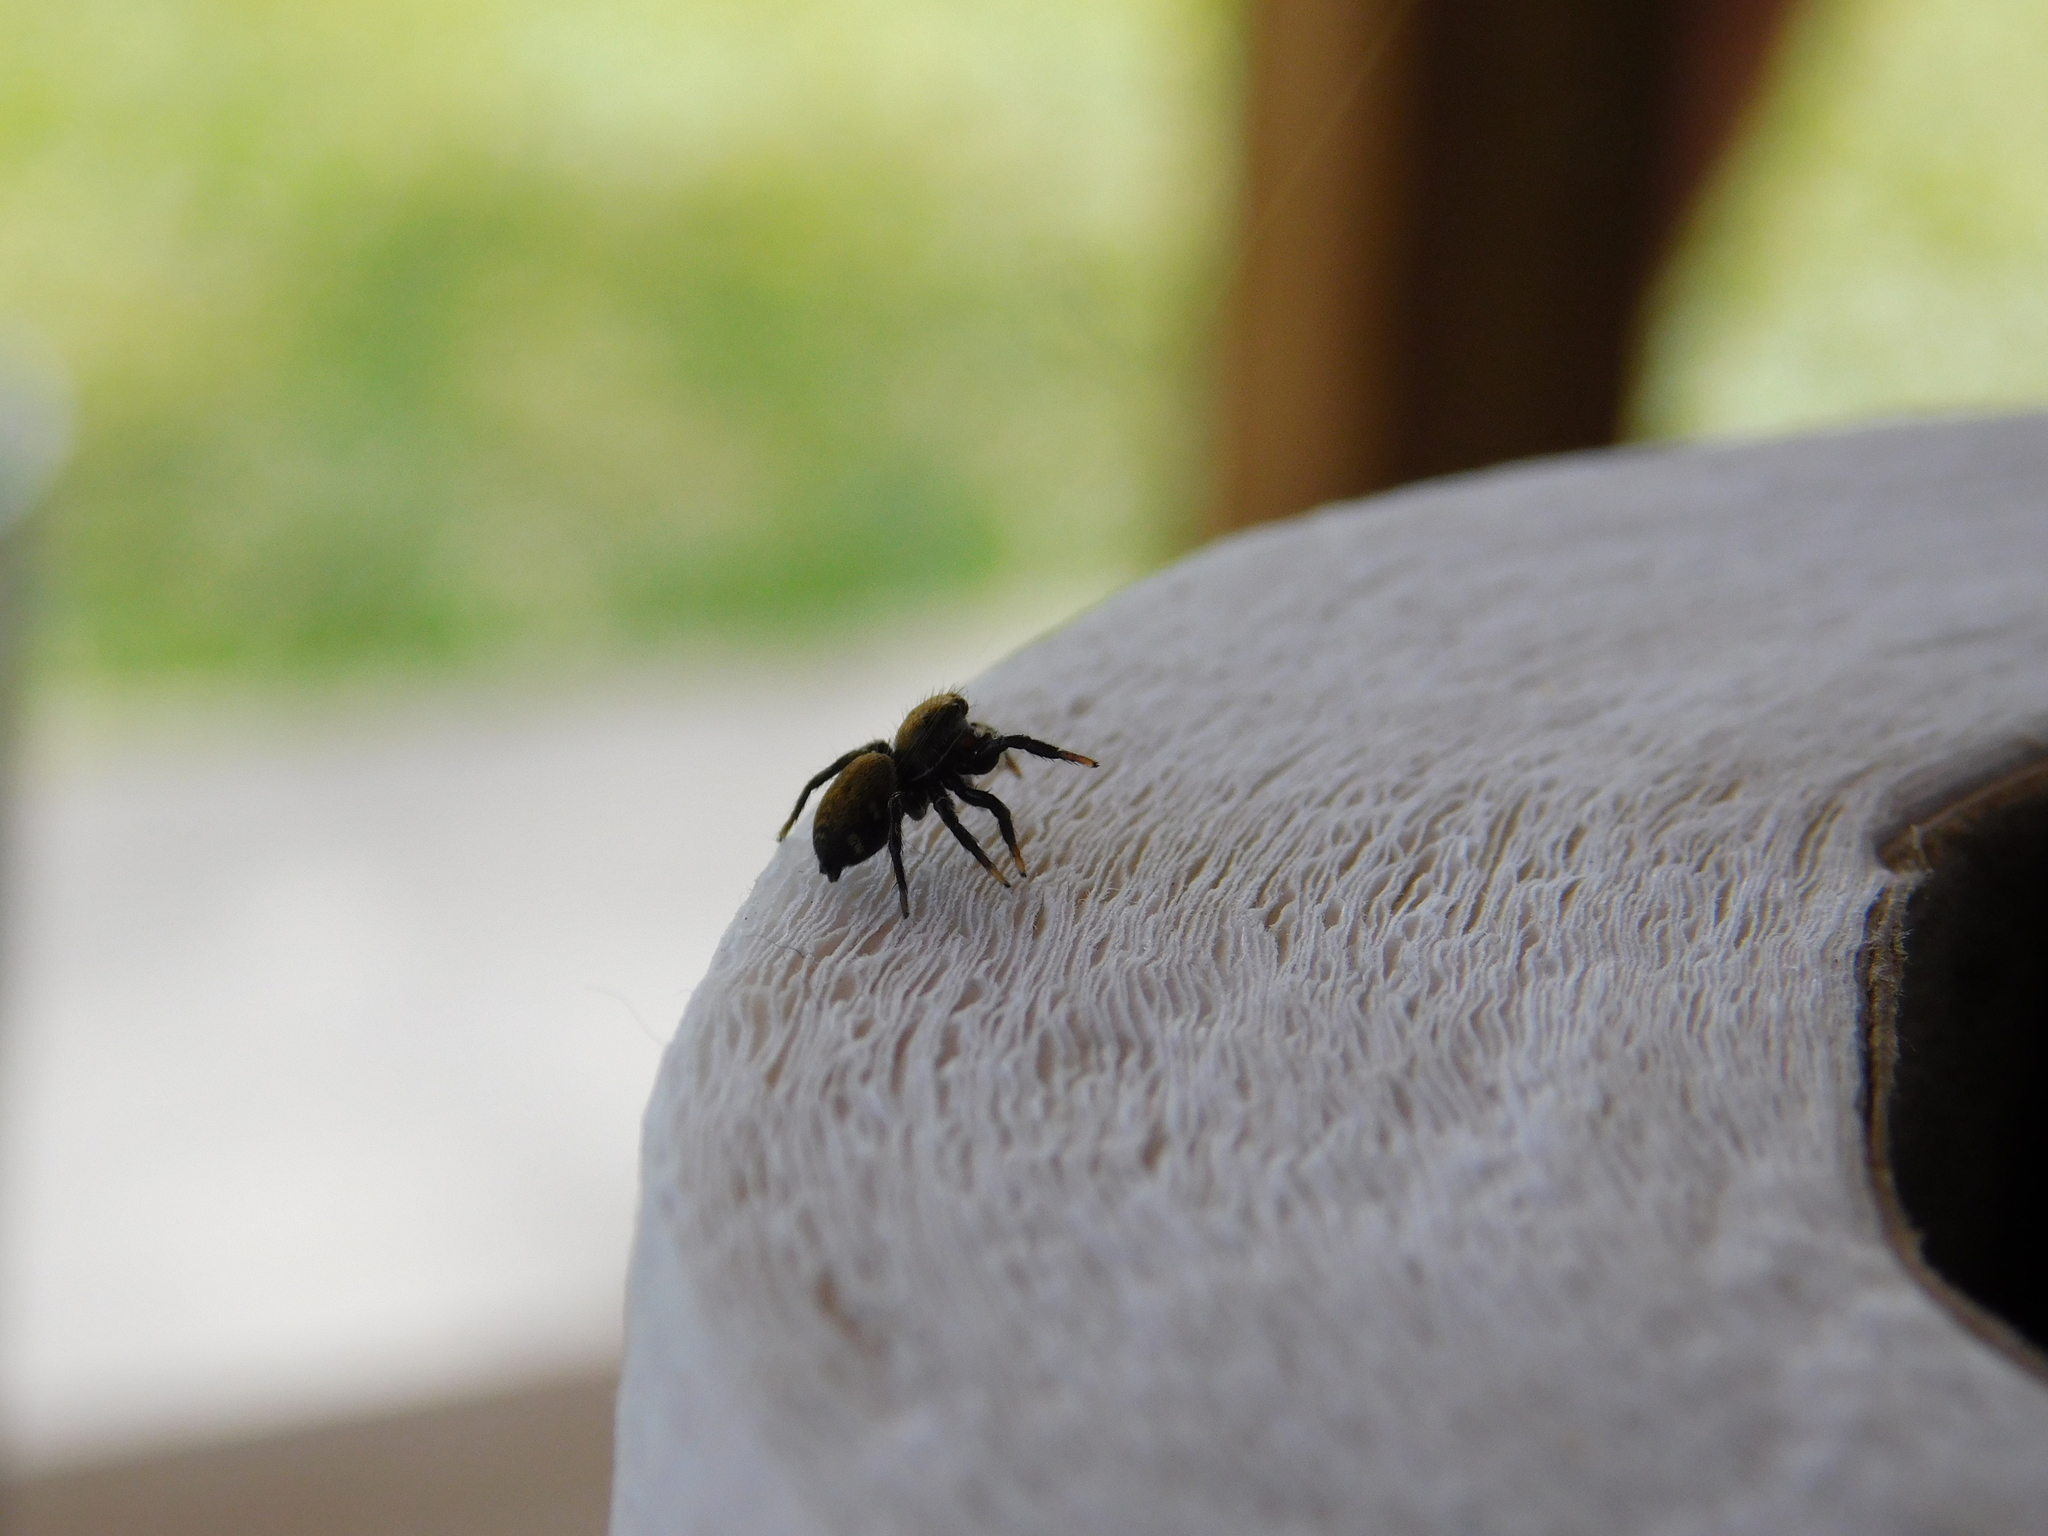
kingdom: Animalia
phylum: Arthropoda
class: Arachnida
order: Araneae
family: Salticidae
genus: Phiale
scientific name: Phiale roburifoliata
